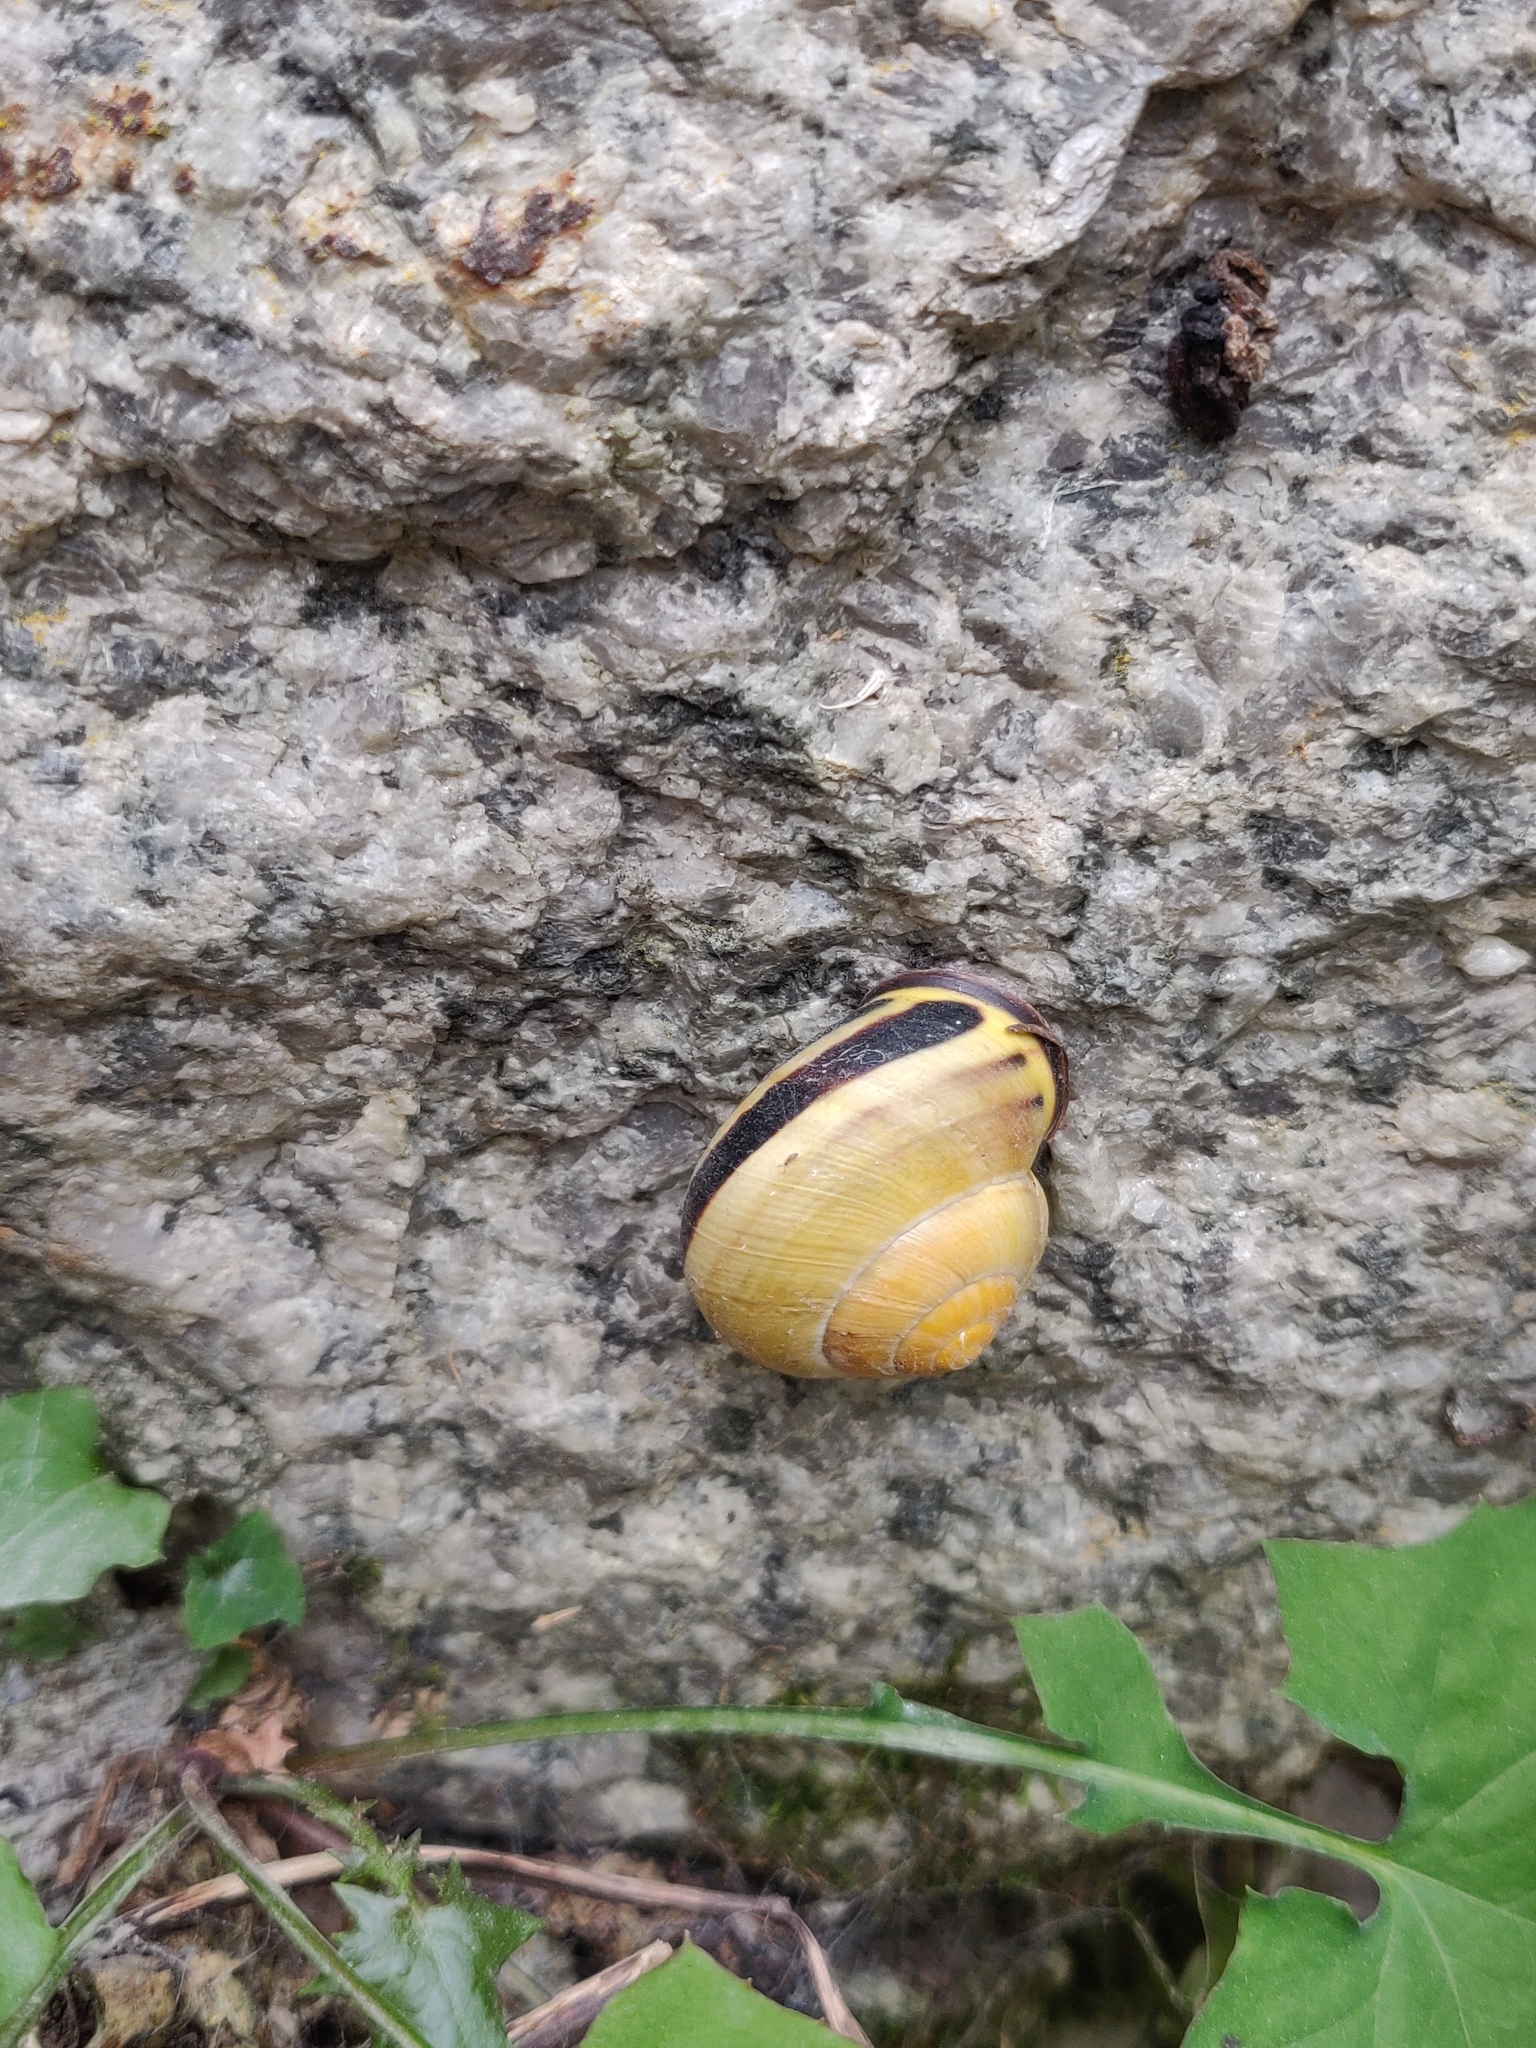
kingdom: Animalia
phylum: Mollusca
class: Gastropoda
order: Stylommatophora
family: Helicidae
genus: Cepaea
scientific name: Cepaea nemoralis
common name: Grovesnail
